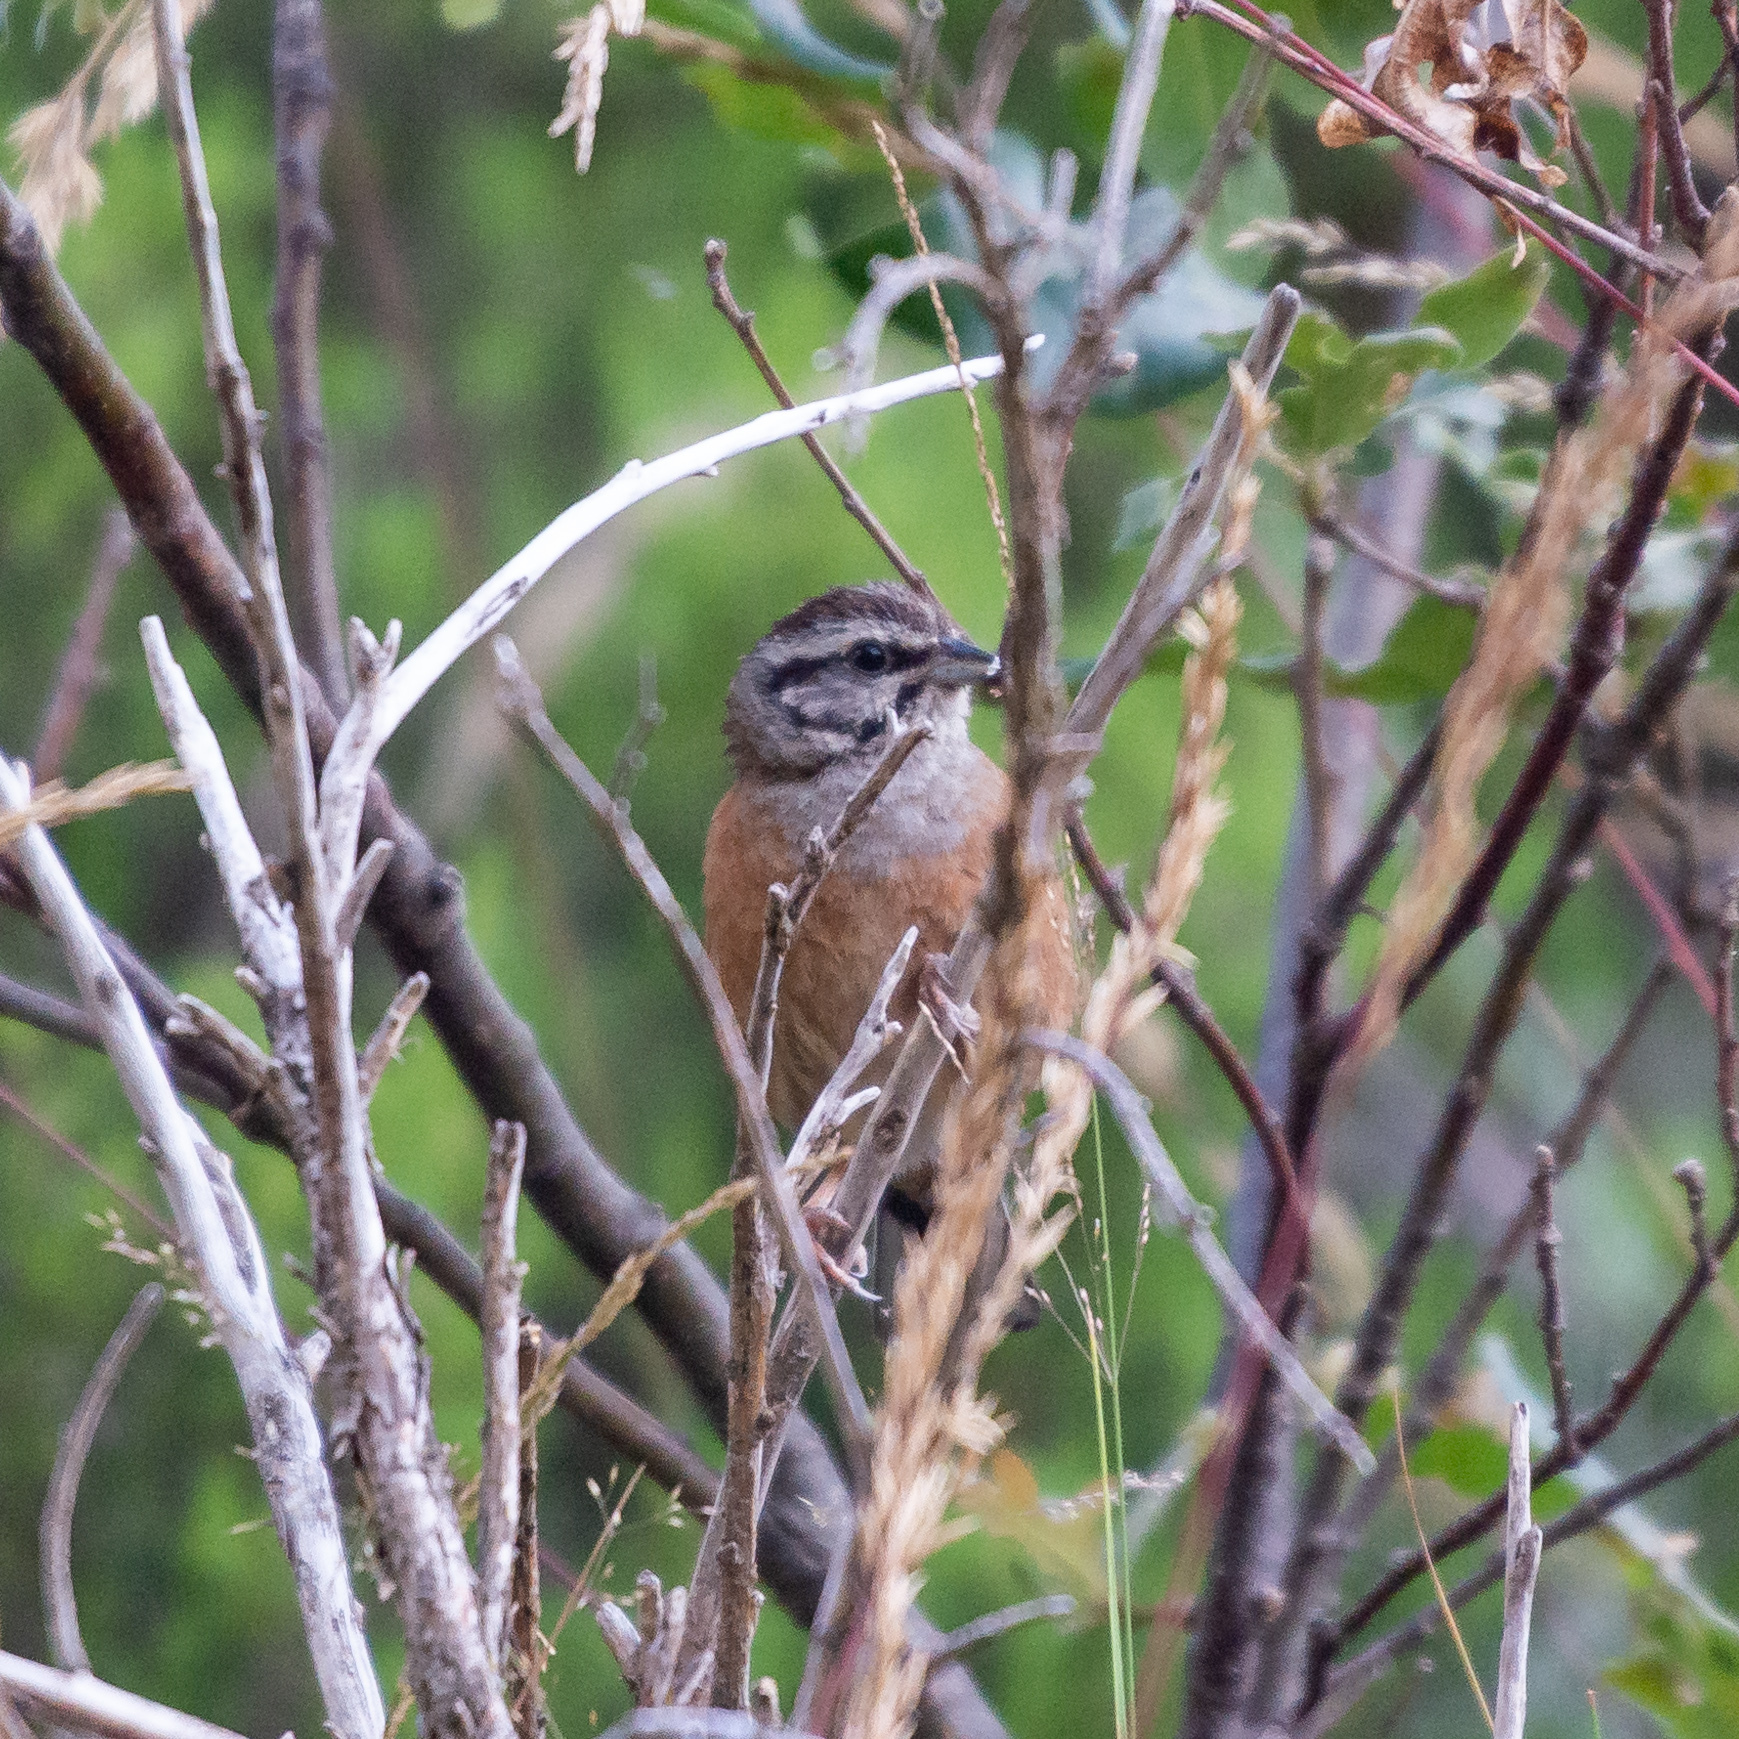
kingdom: Animalia
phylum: Chordata
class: Aves
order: Passeriformes
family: Emberizidae
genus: Emberiza
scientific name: Emberiza cia
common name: Rock bunting
